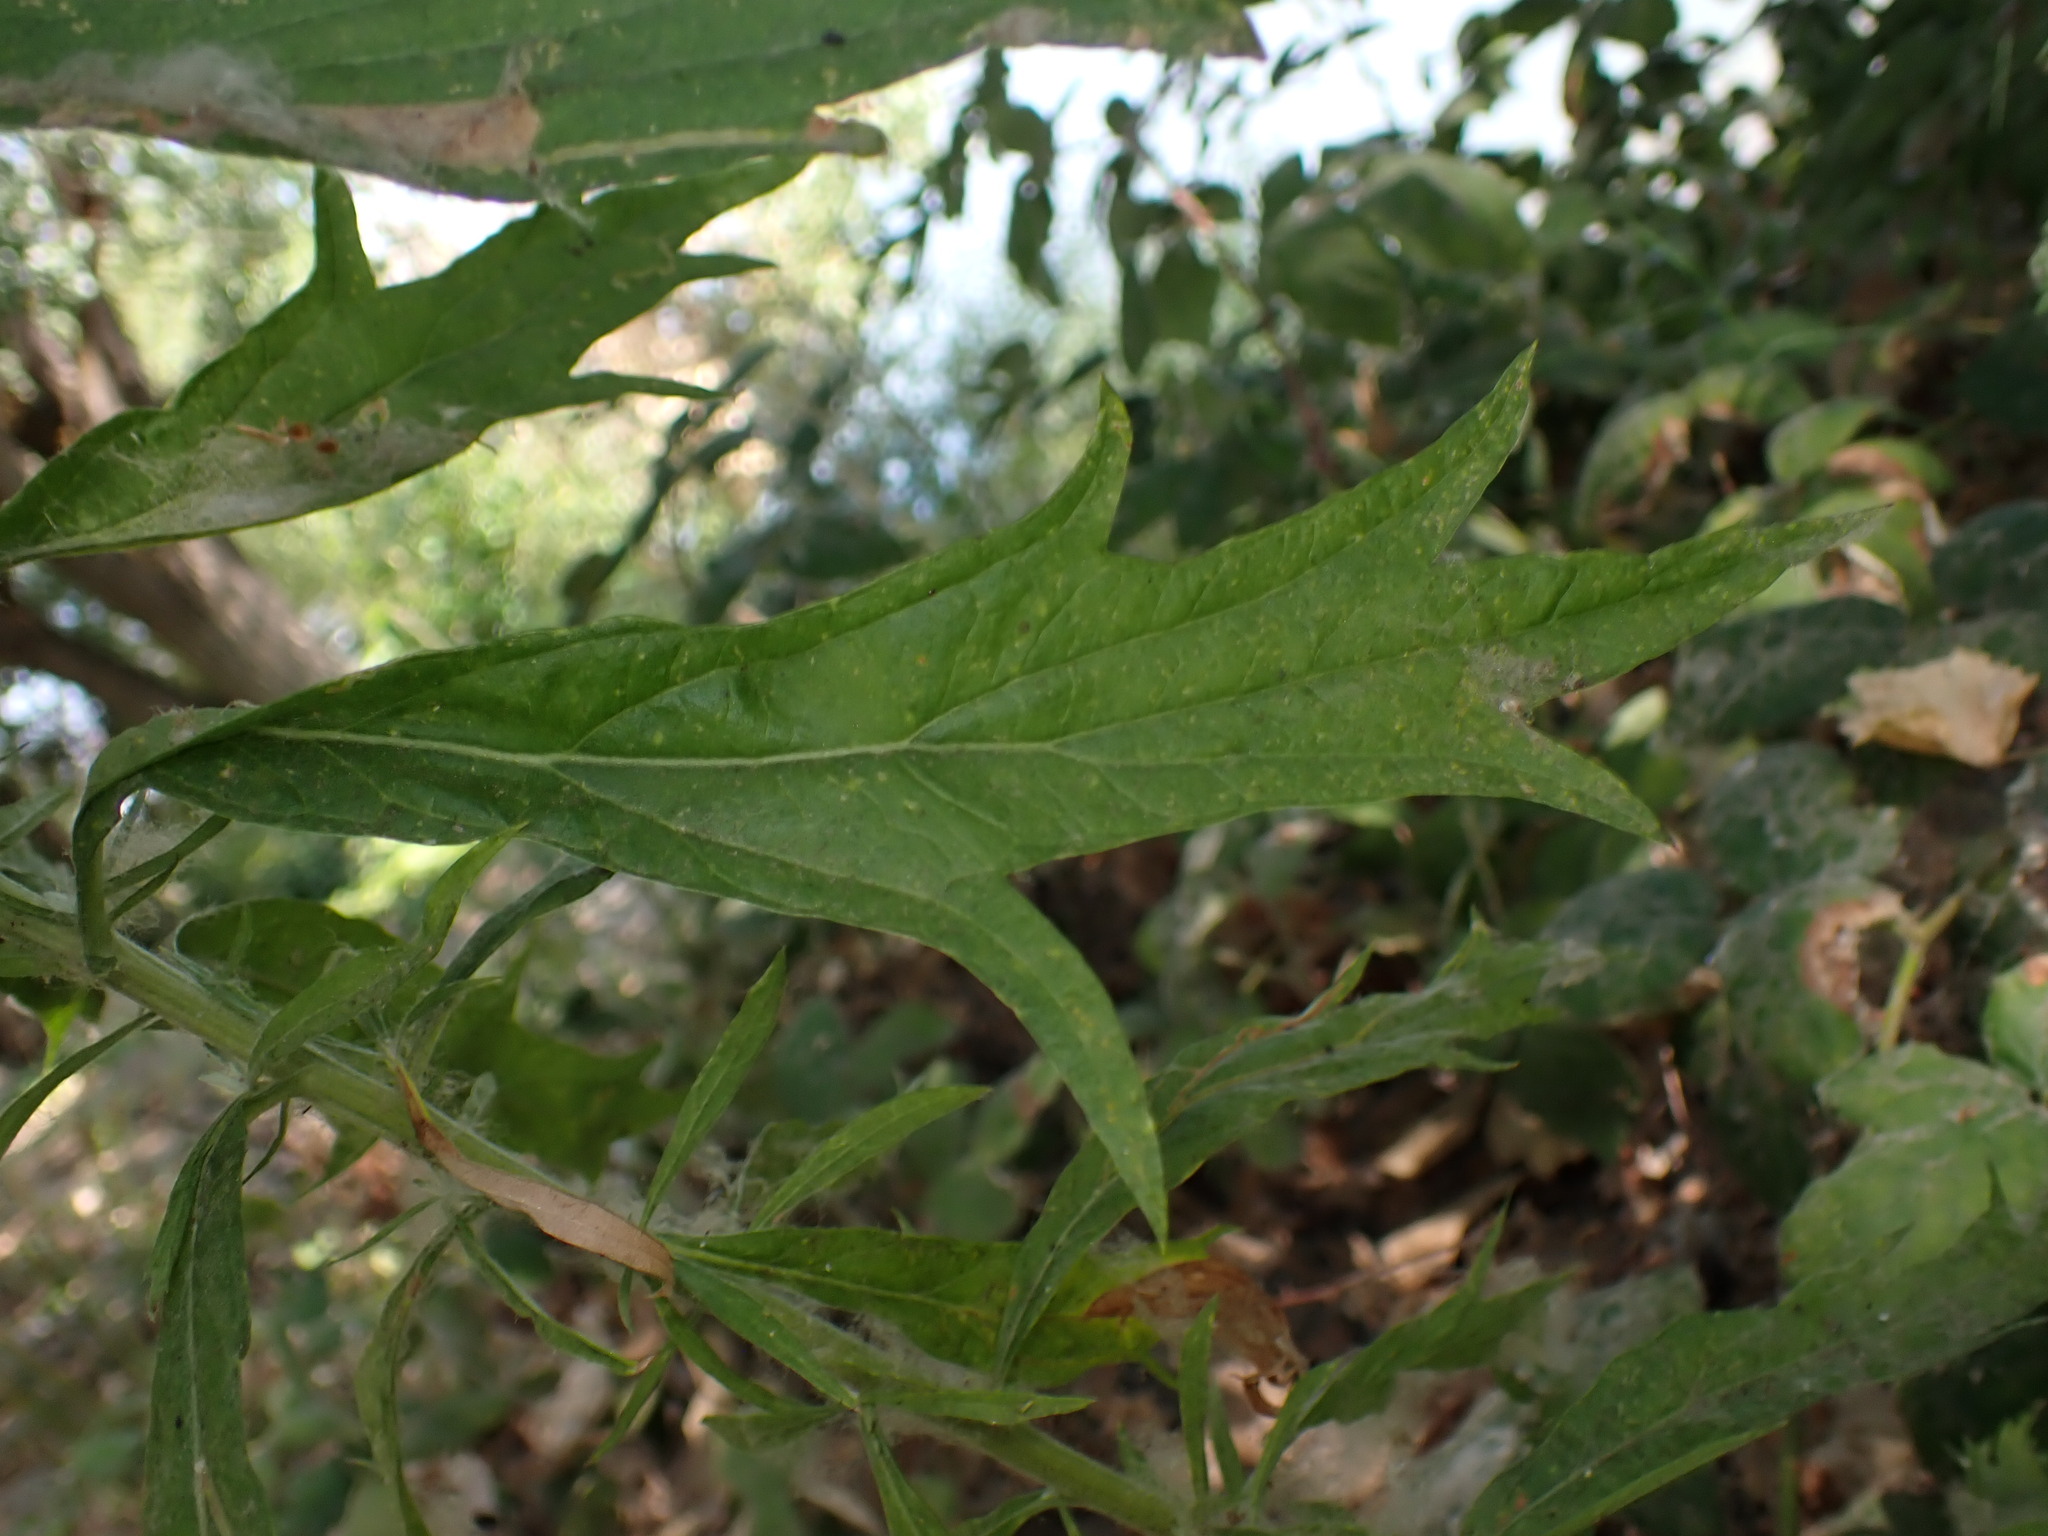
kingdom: Plantae
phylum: Tracheophyta
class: Magnoliopsida
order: Asterales
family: Asteraceae
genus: Artemisia
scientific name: Artemisia douglasiana
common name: Northwest mugwort
